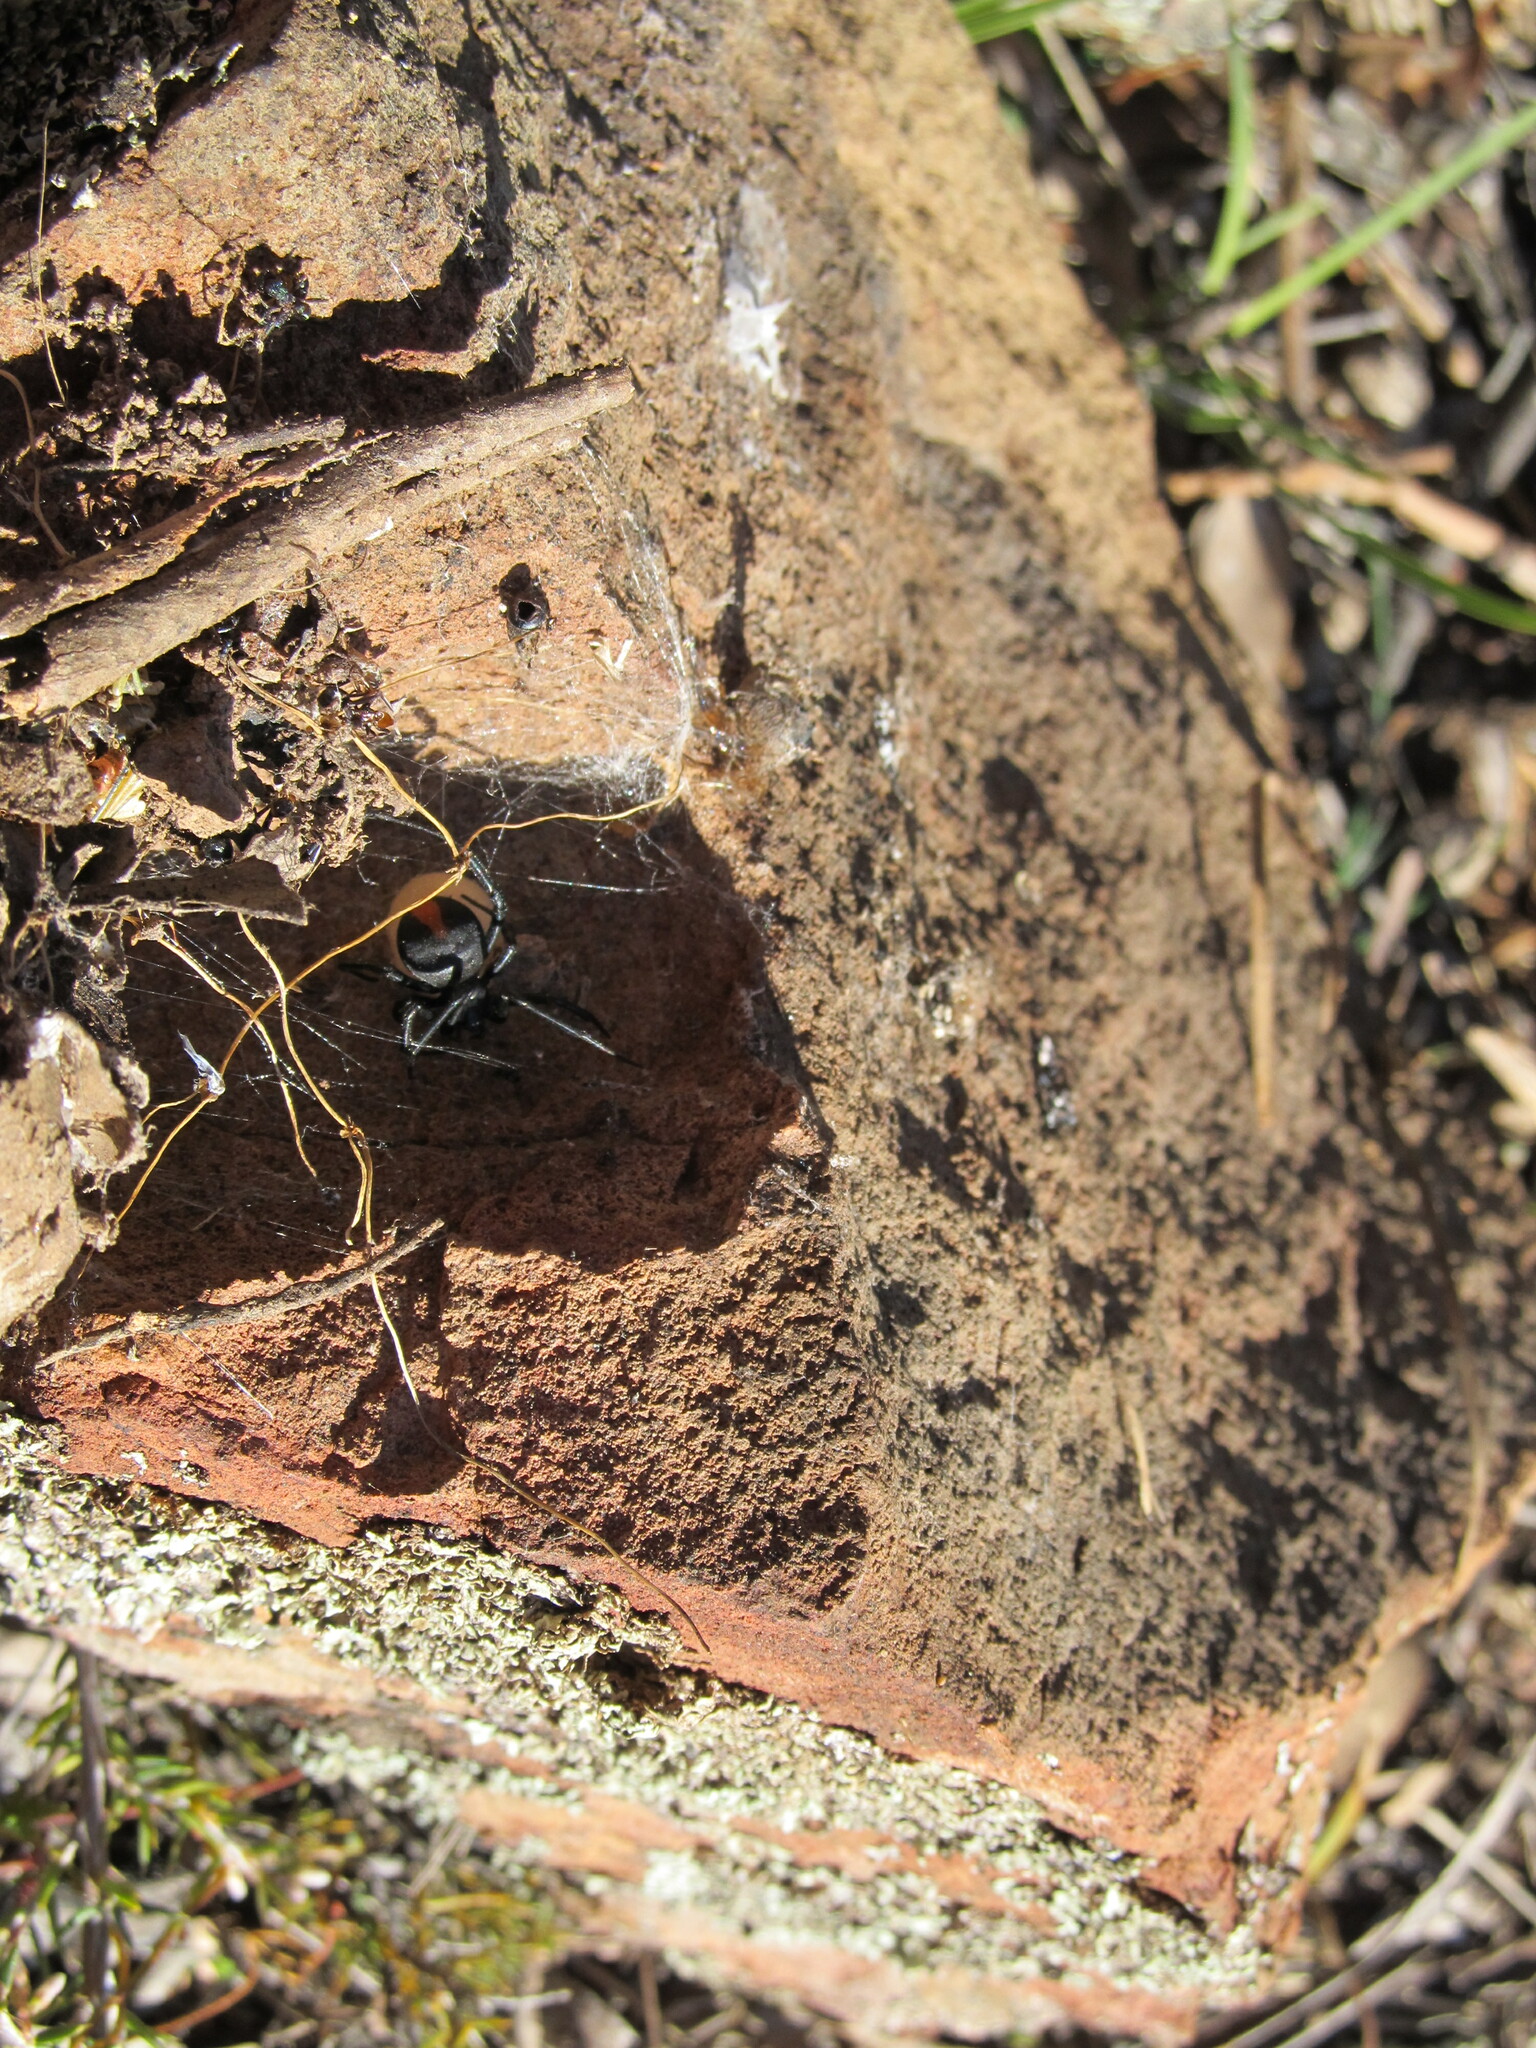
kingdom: Animalia
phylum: Arthropoda
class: Arachnida
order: Araneae
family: Theridiidae
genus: Latrodectus
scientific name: Latrodectus hasselti
